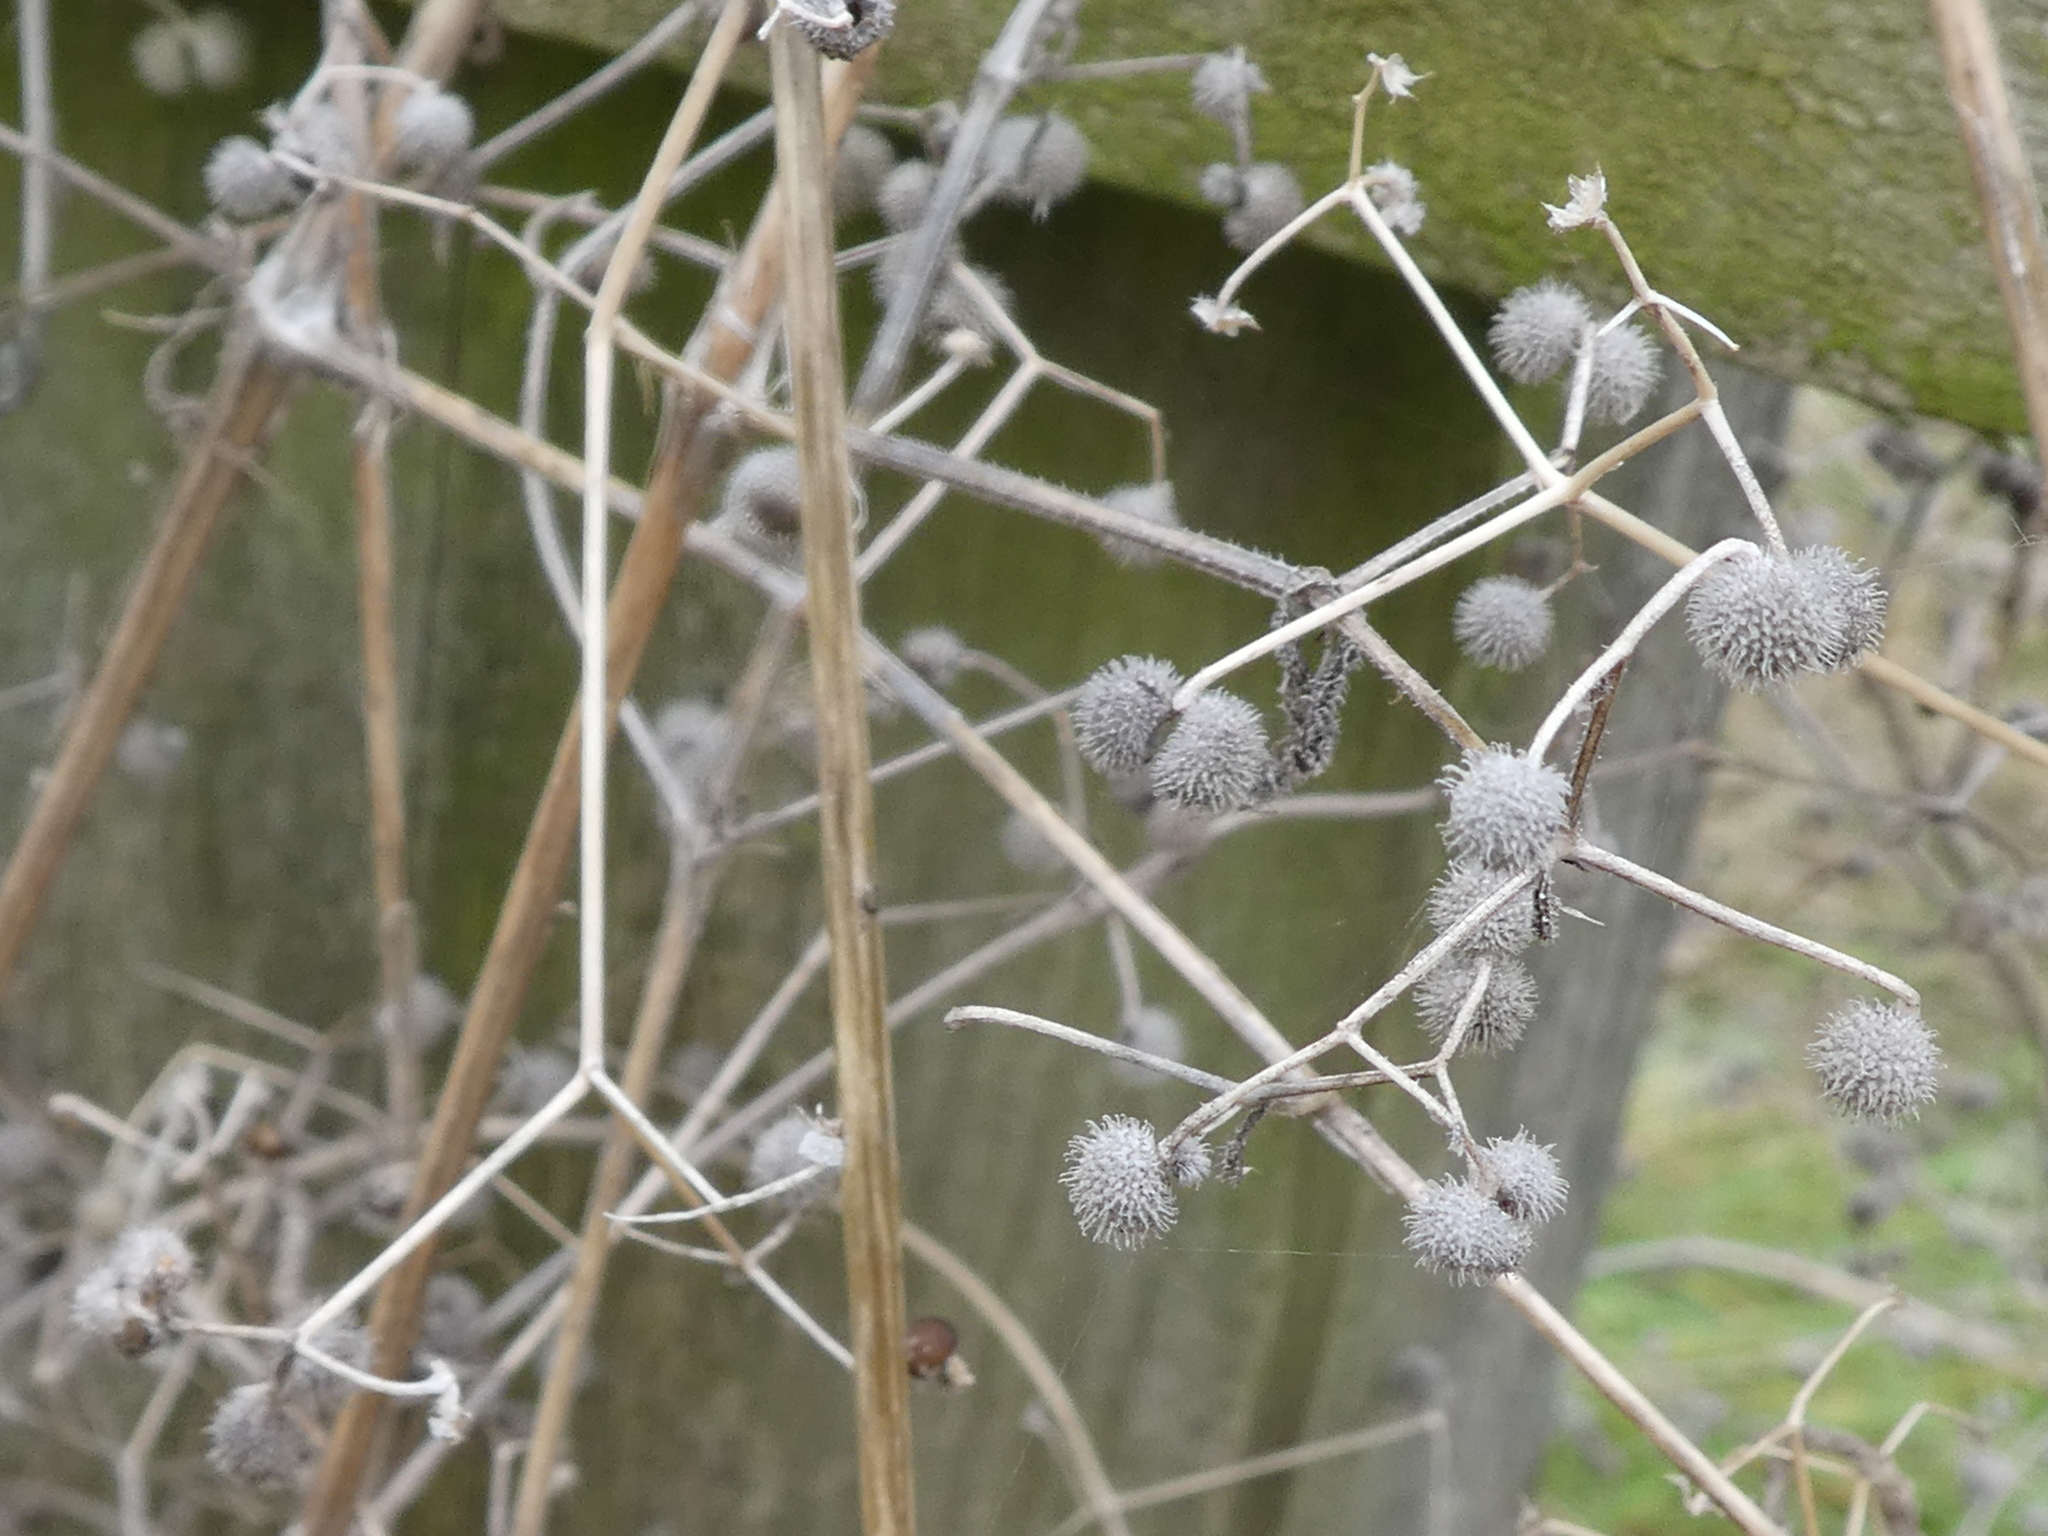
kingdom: Plantae
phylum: Tracheophyta
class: Magnoliopsida
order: Gentianales
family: Rubiaceae
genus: Galium
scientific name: Galium aparine
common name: Cleavers
